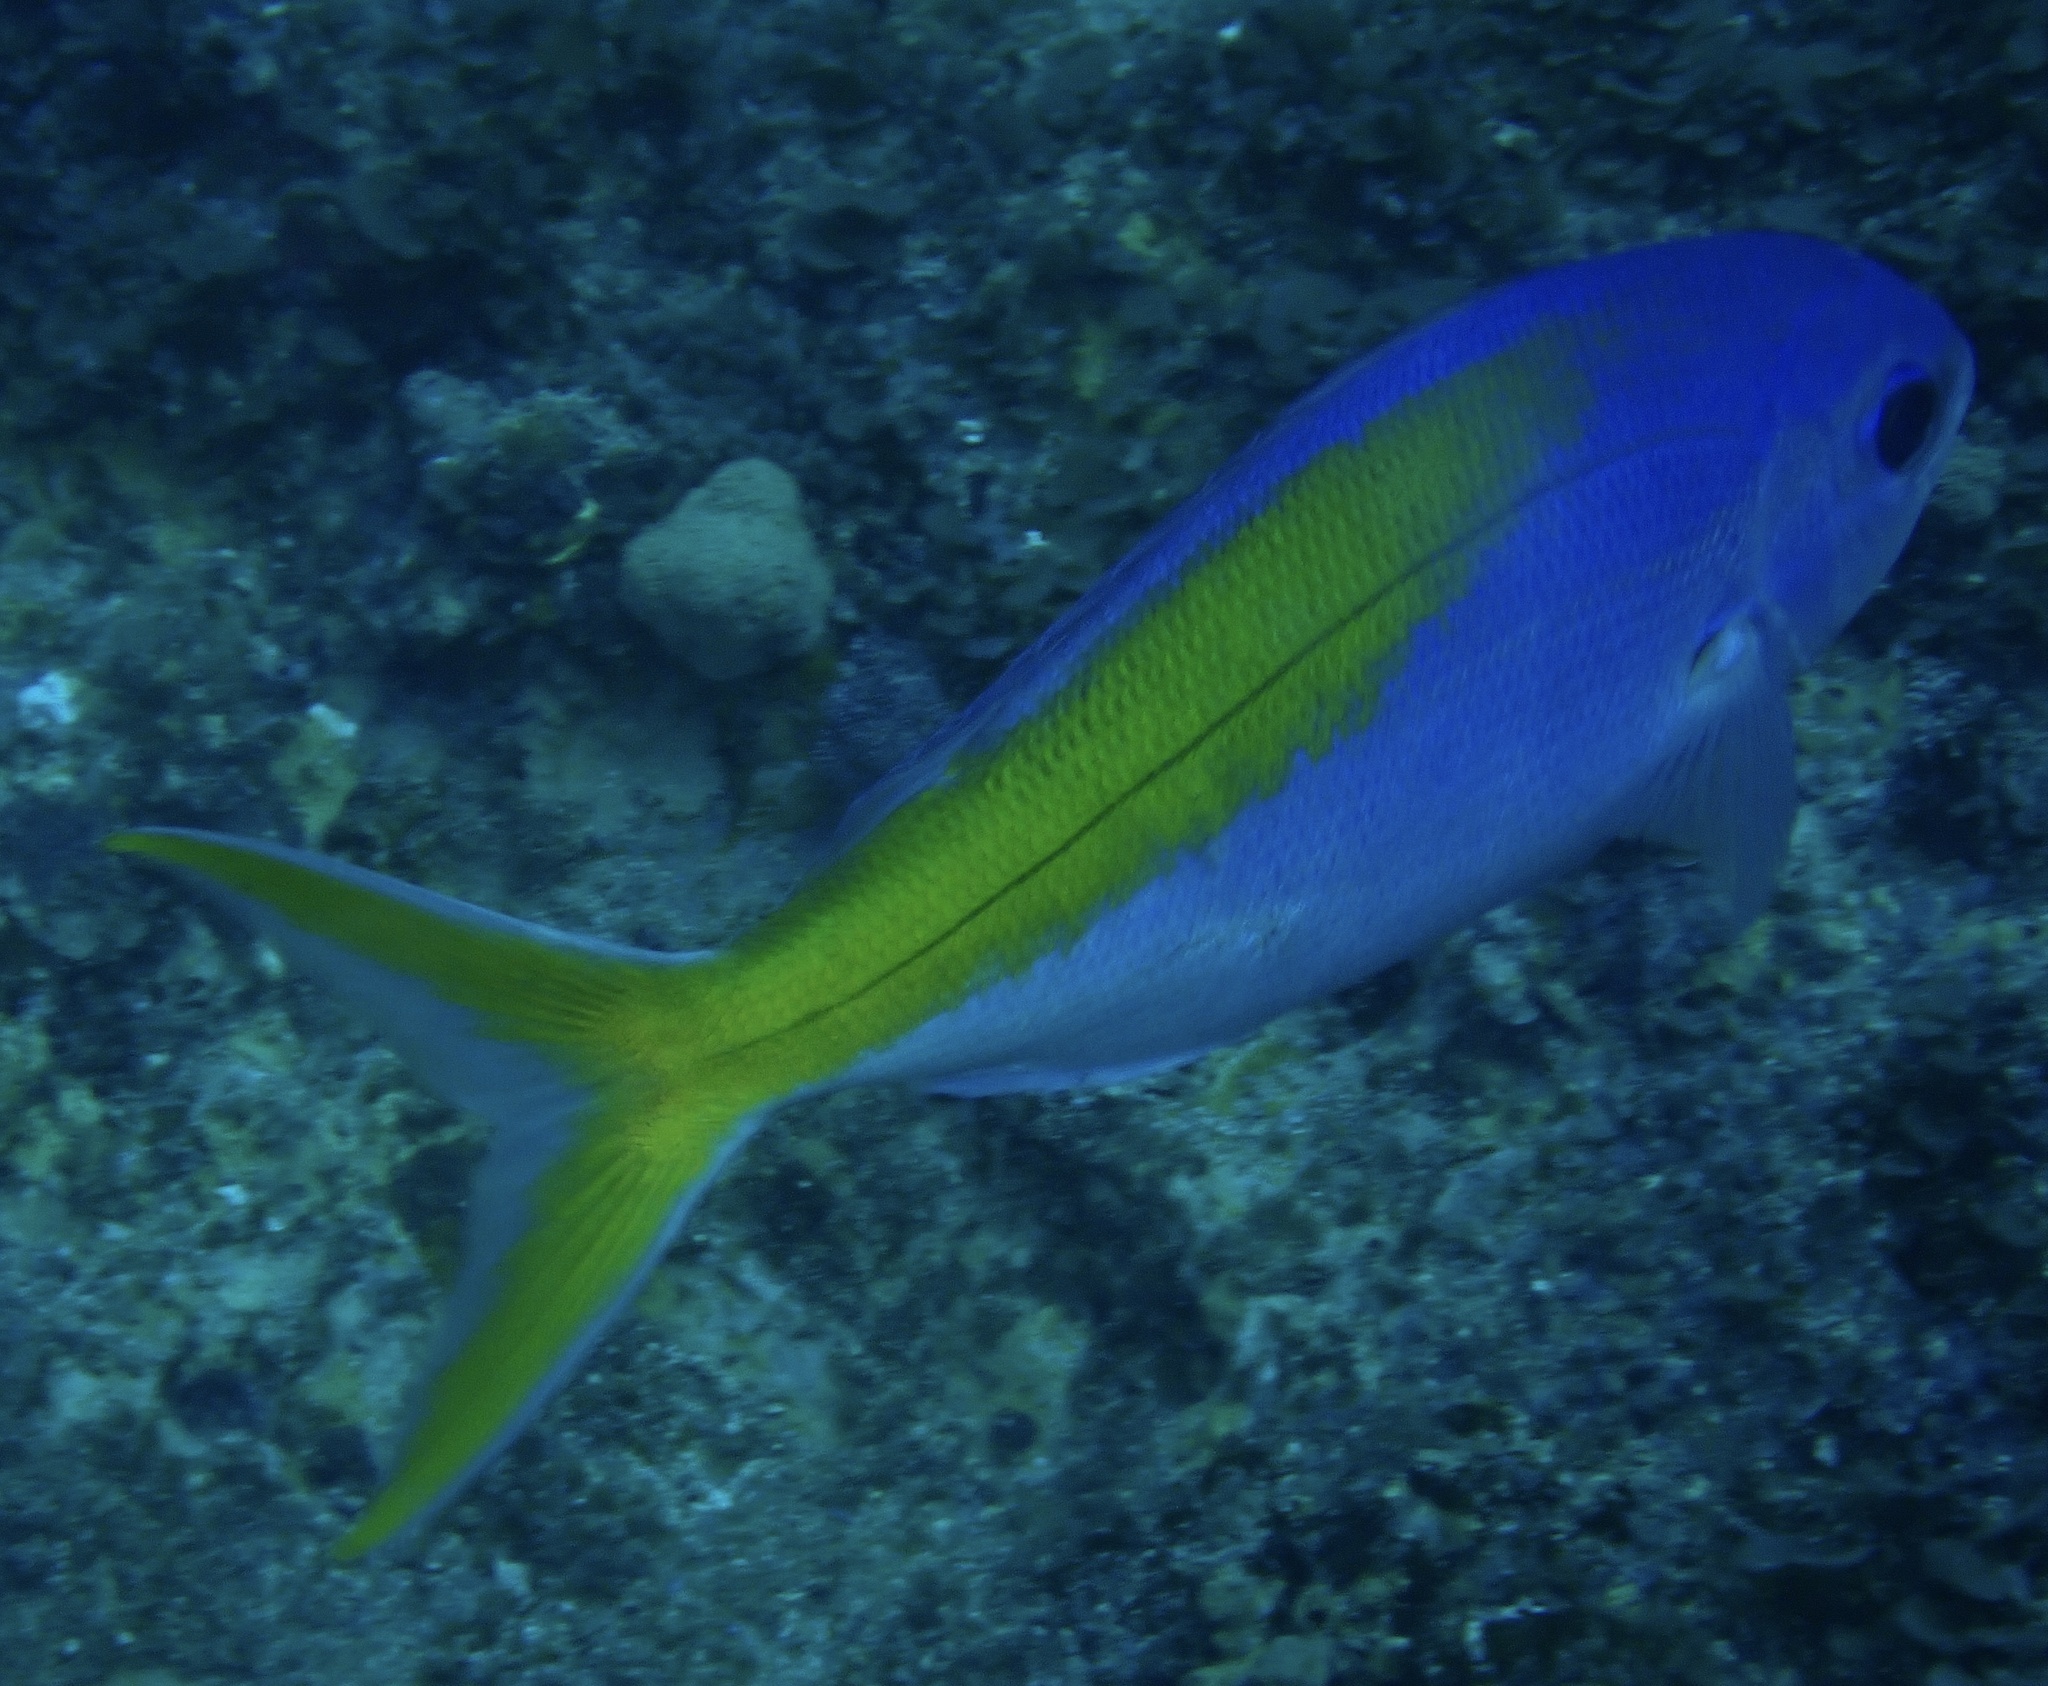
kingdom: Animalia
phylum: Chordata
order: Perciformes
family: Lutjanidae
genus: Paracaesio
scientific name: Paracaesio xanthura
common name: Yellowtail blue snapper
